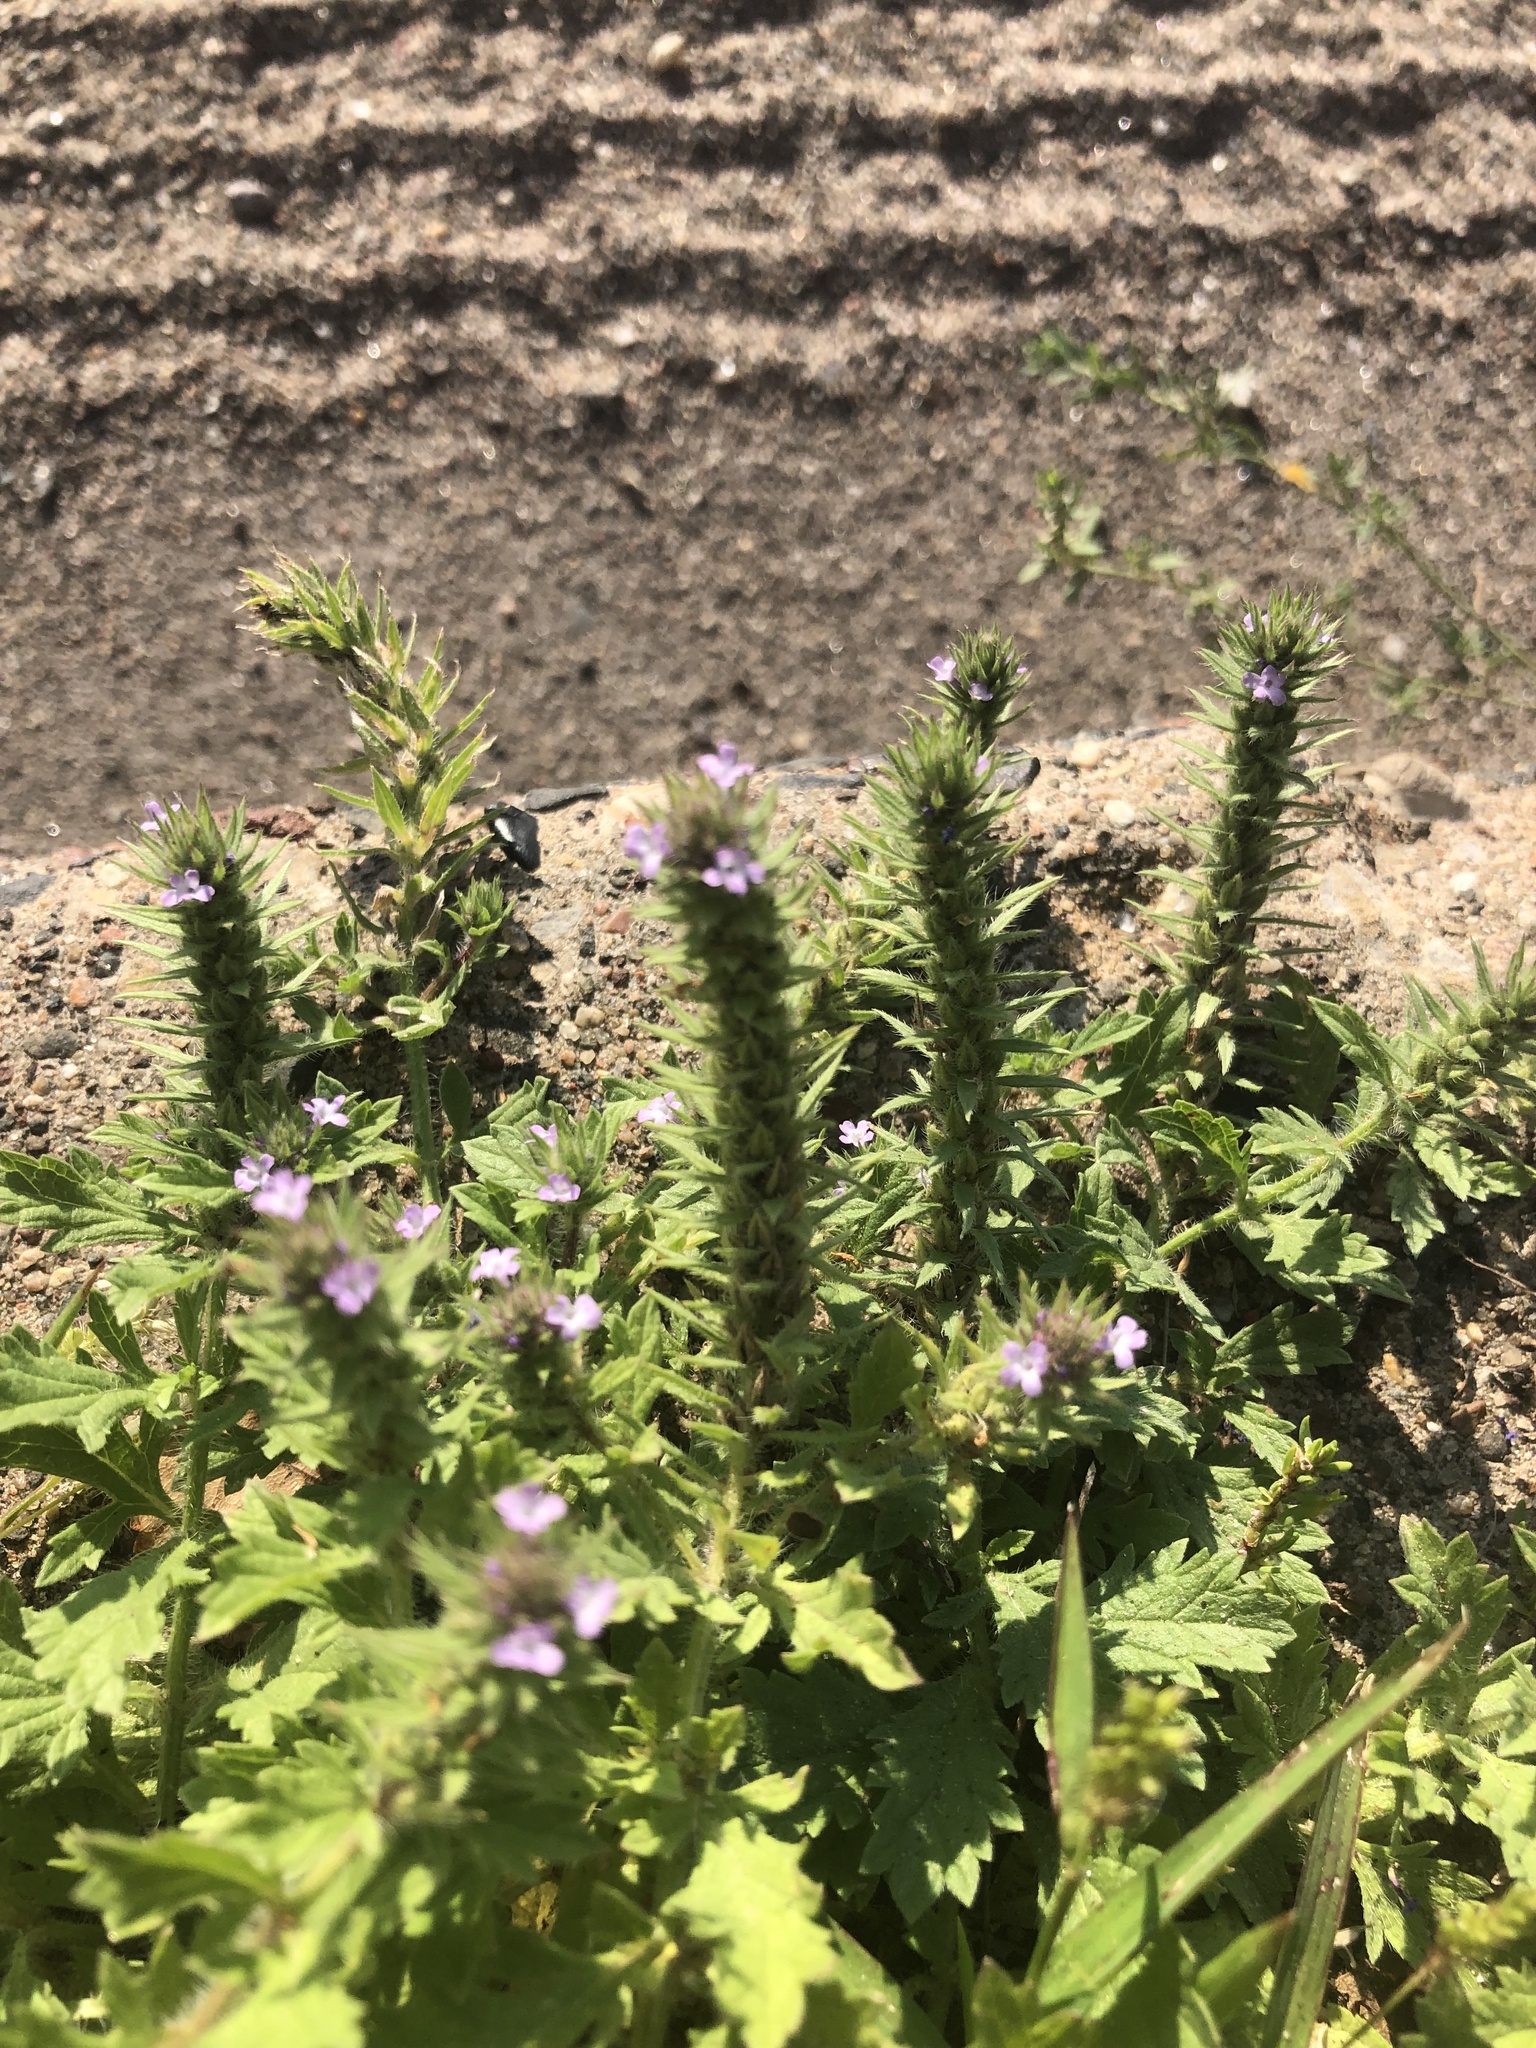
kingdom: Plantae
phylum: Tracheophyta
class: Magnoliopsida
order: Lamiales
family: Verbenaceae
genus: Verbena
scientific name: Verbena bracteata
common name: Bracted vervain
